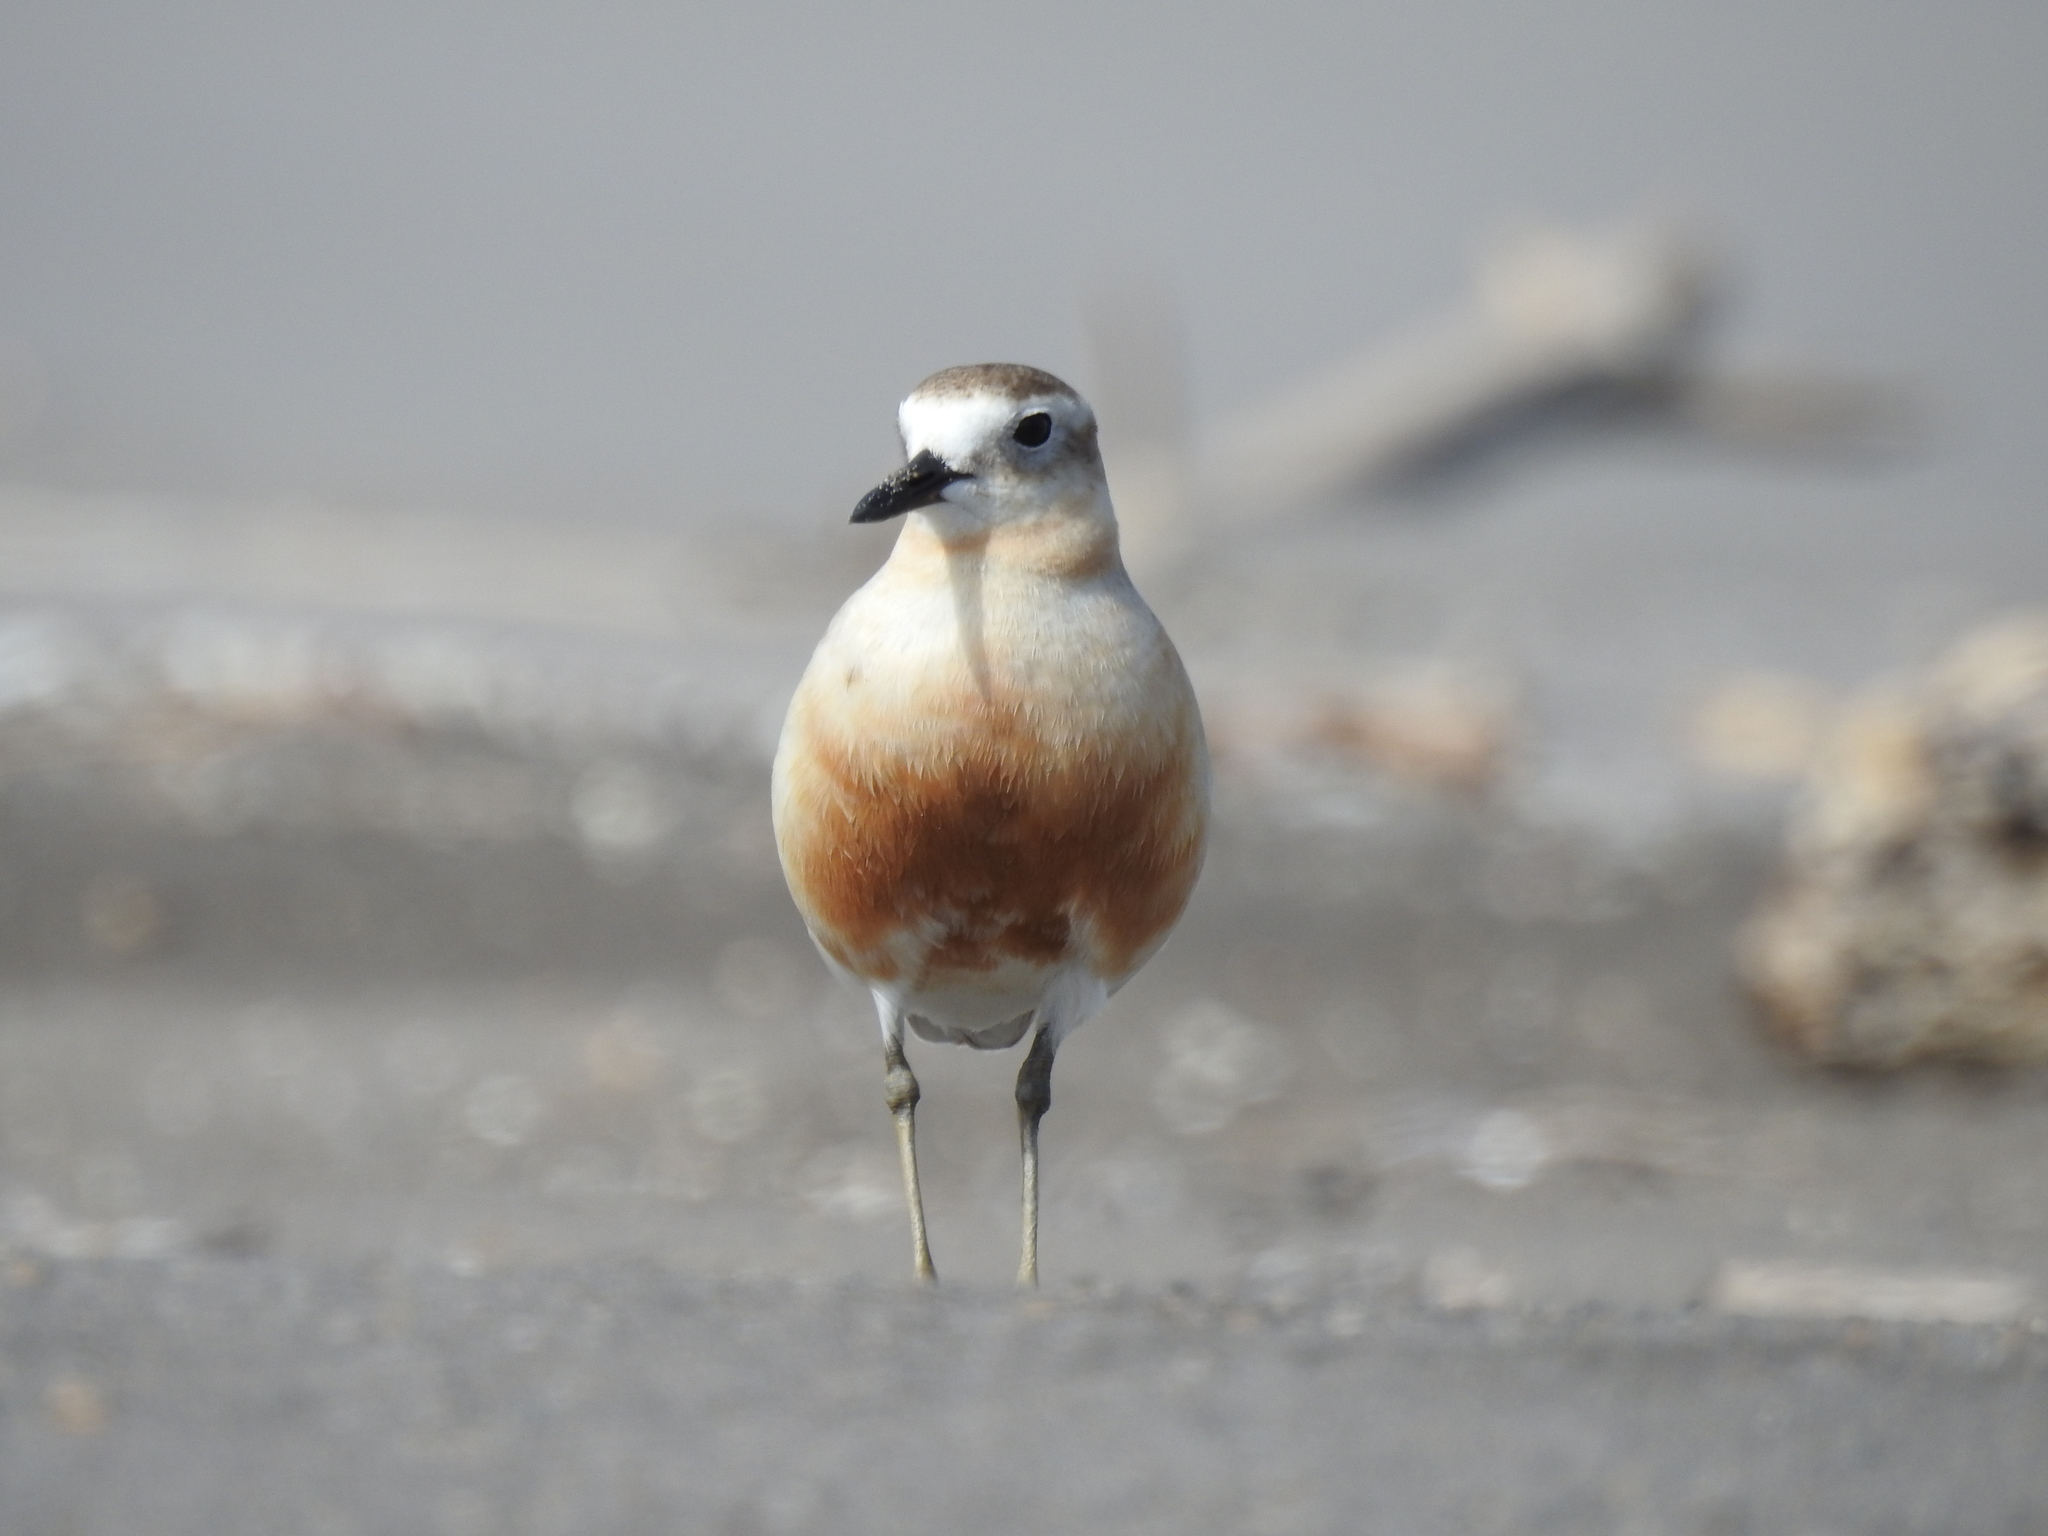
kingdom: Animalia
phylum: Chordata
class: Aves
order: Charadriiformes
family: Charadriidae
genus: Anarhynchus
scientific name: Anarhynchus
